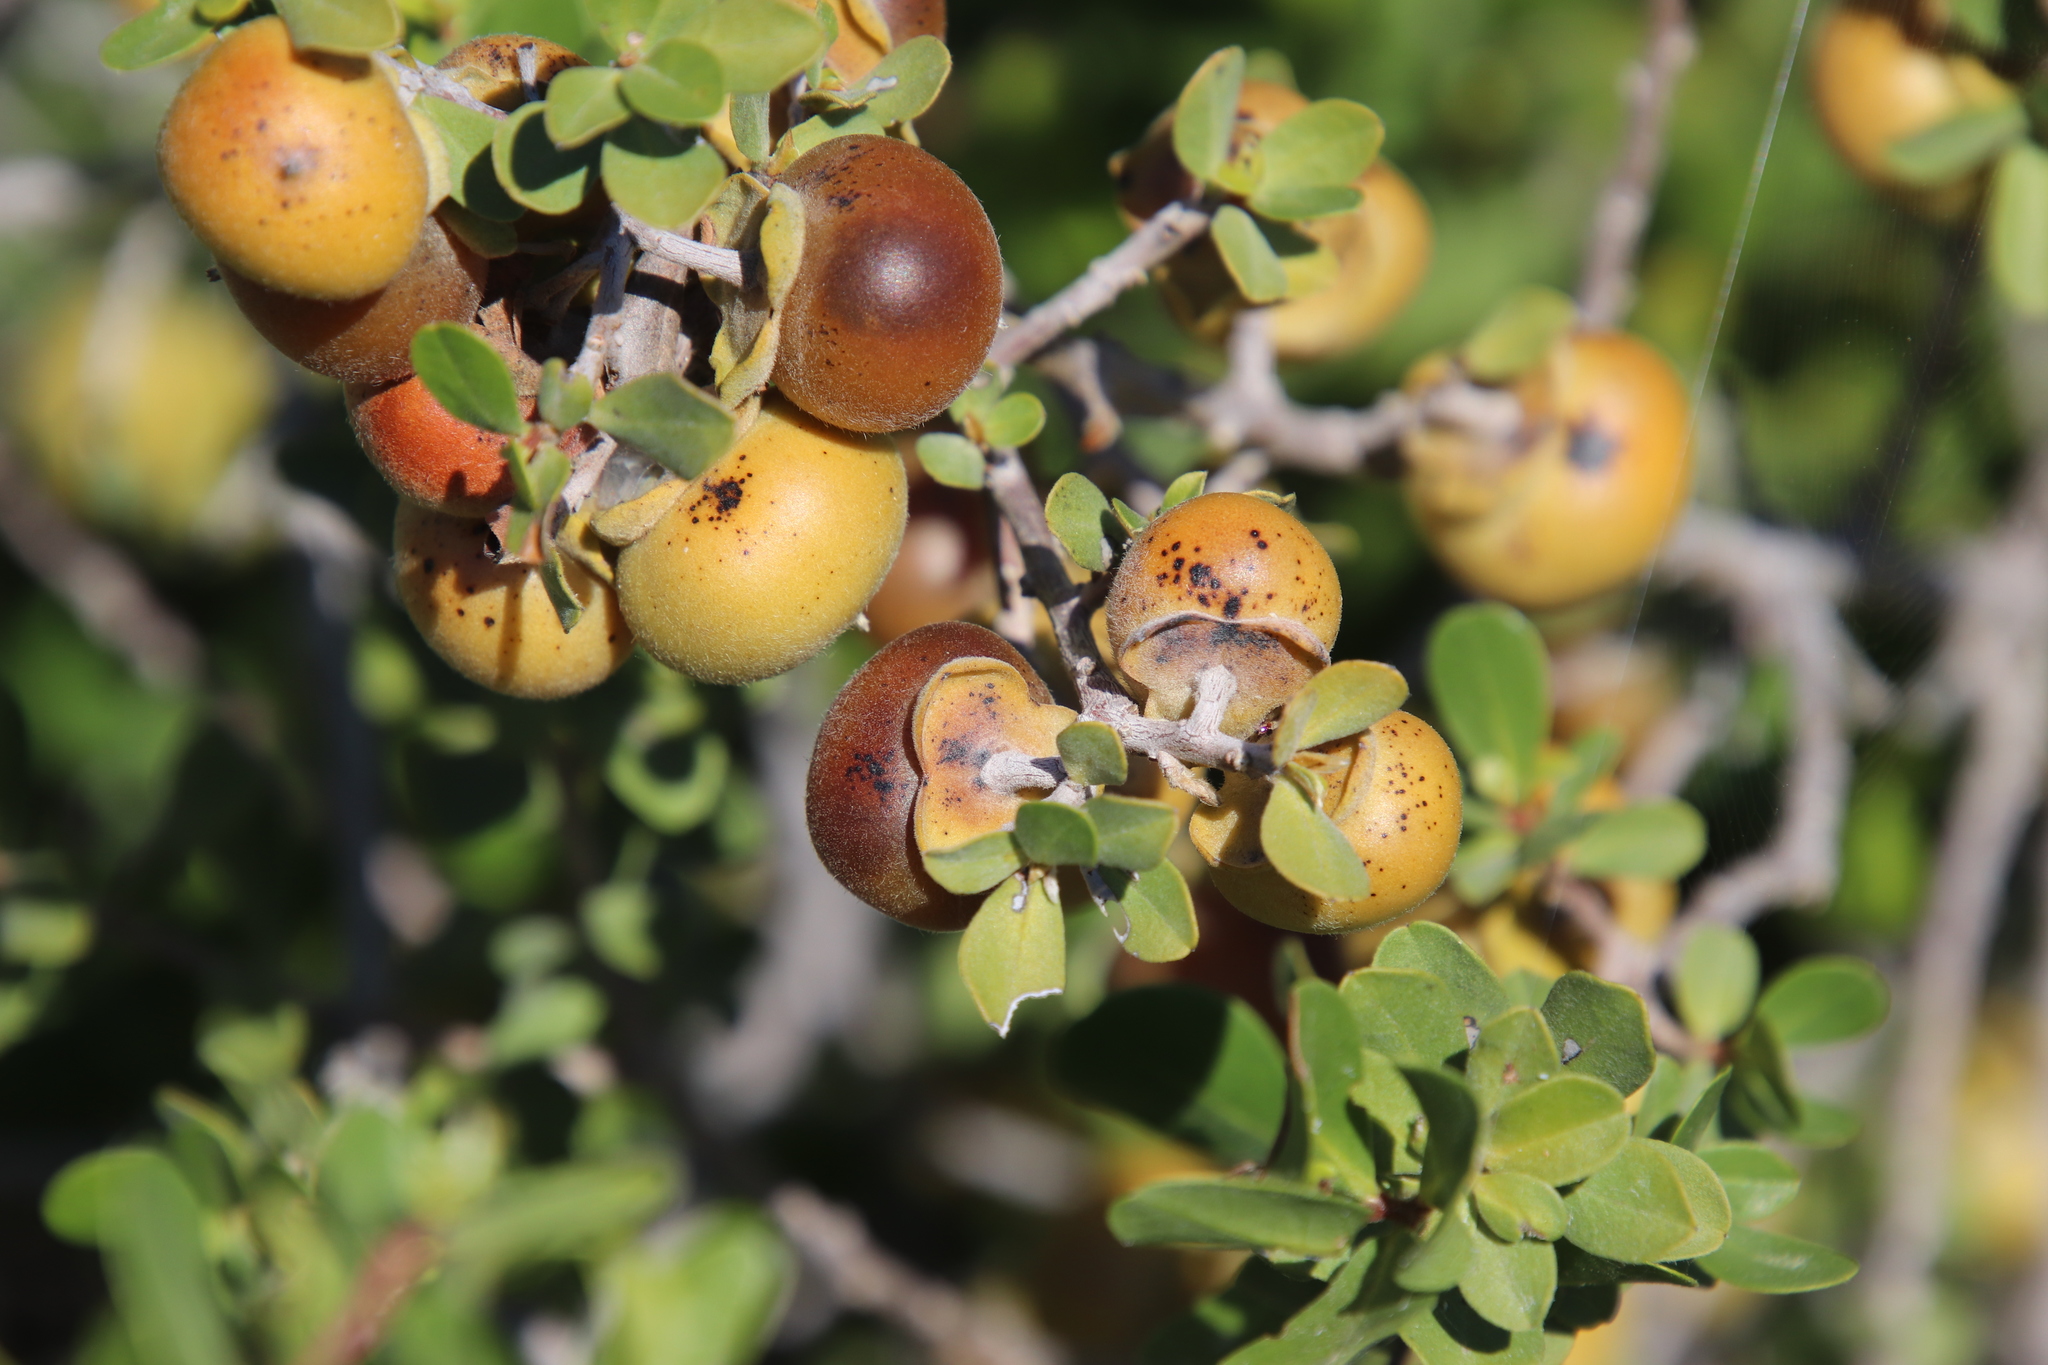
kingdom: Plantae
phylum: Tracheophyta
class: Magnoliopsida
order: Ericales
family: Ebenaceae
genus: Diospyros
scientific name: Diospyros intricata
